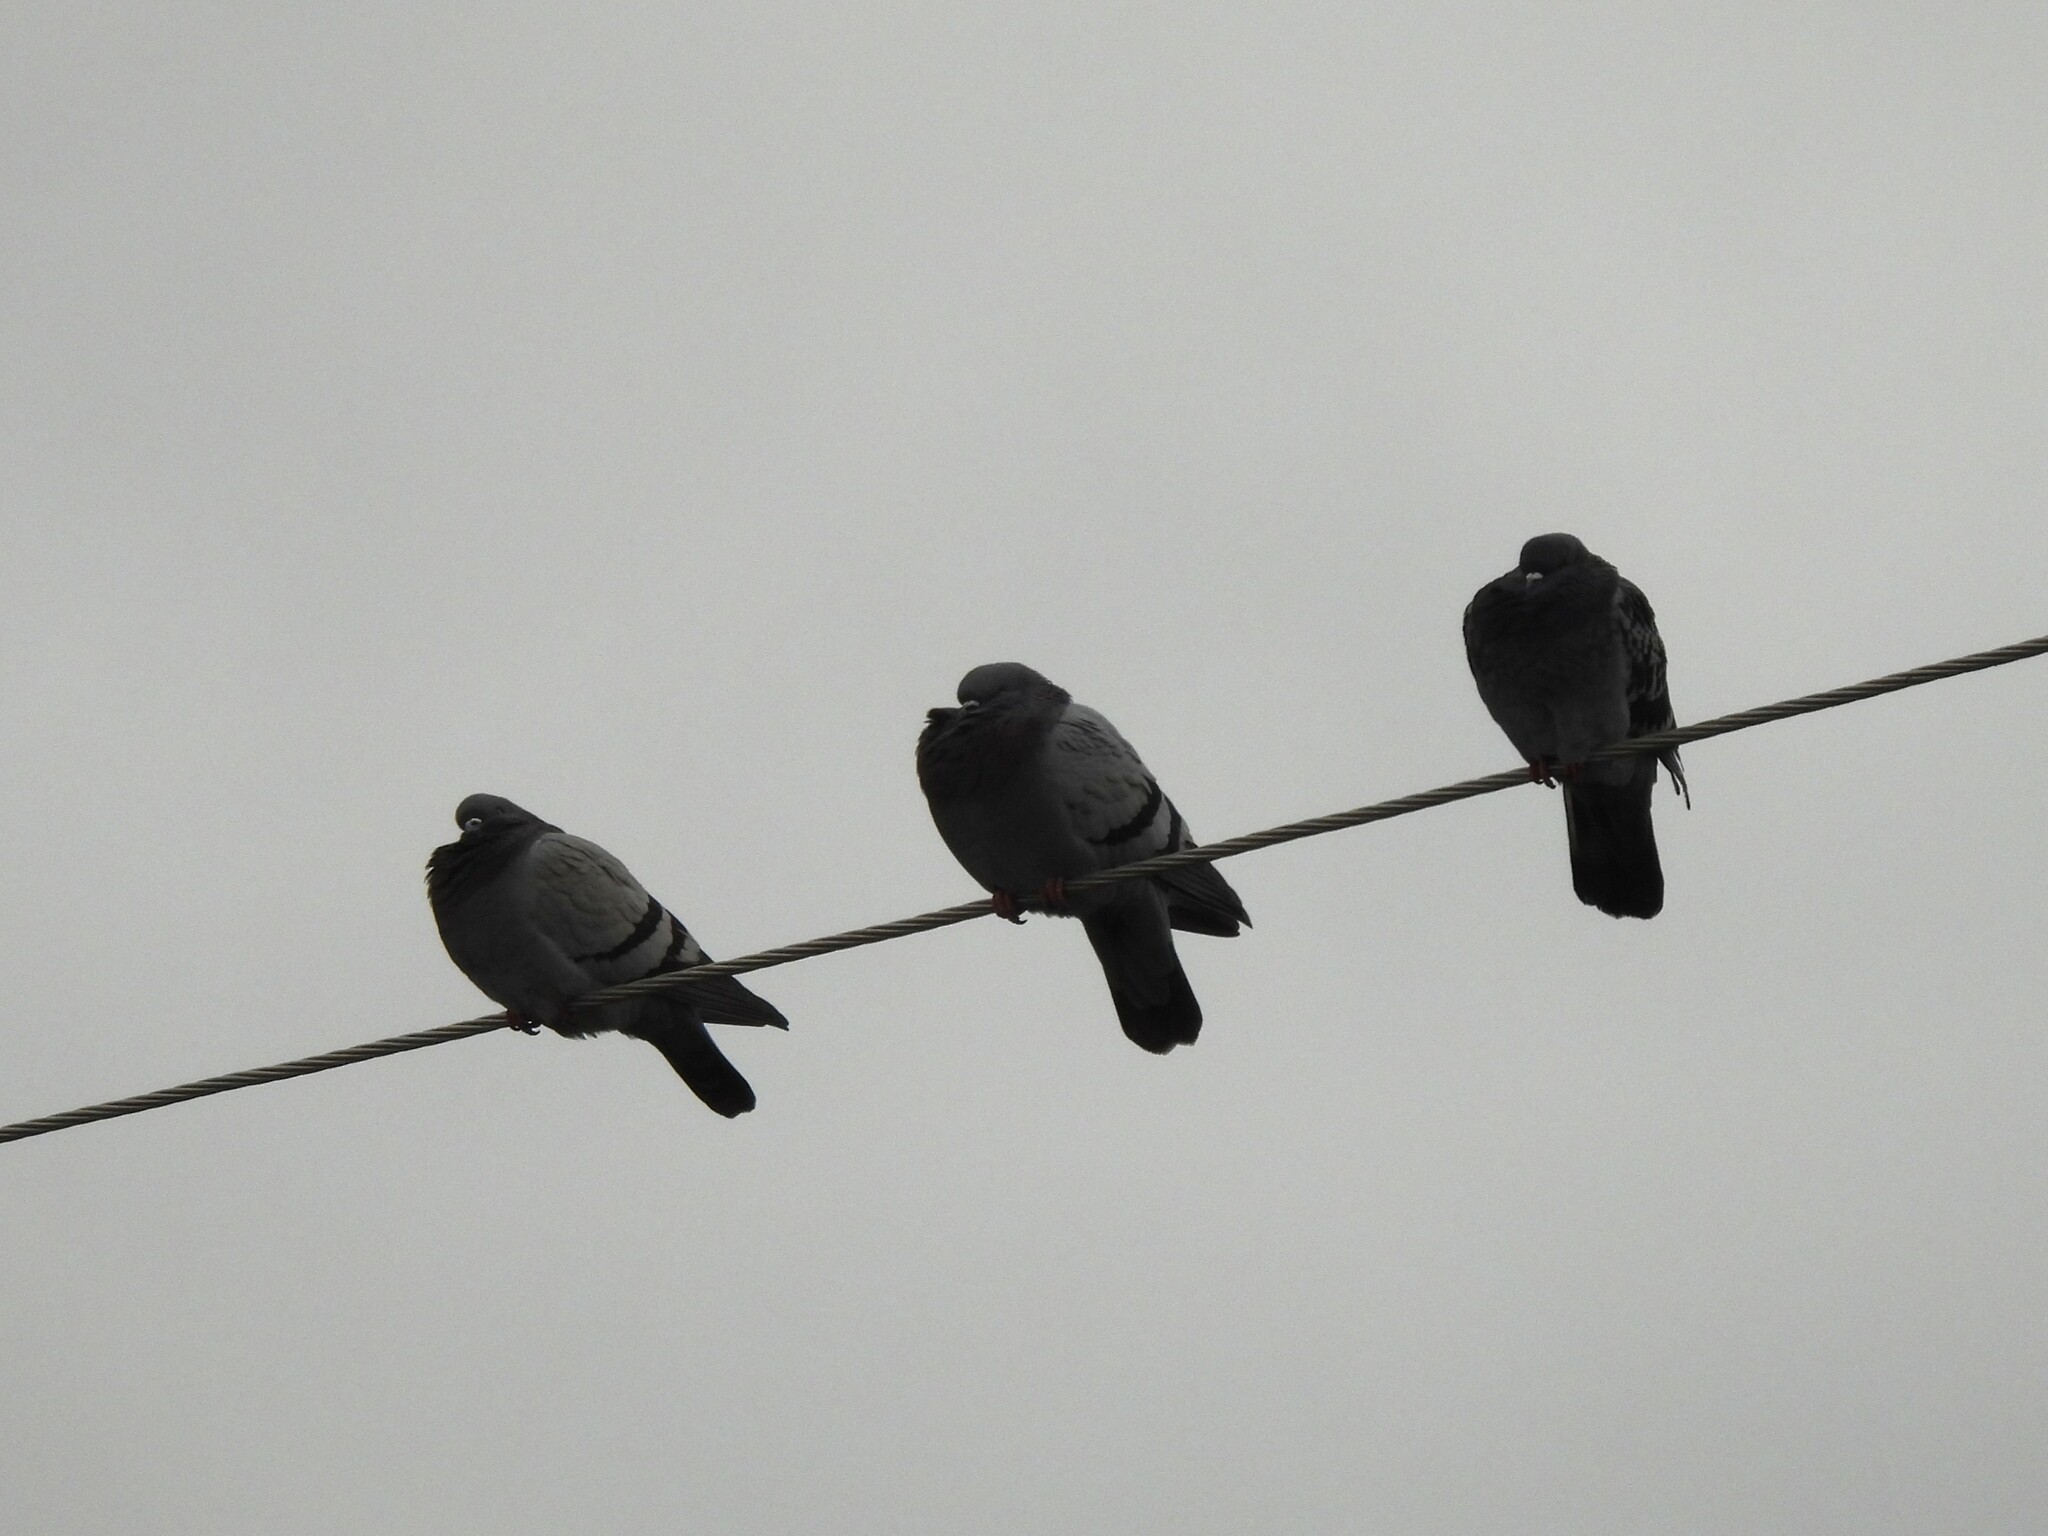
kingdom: Animalia
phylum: Chordata
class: Aves
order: Columbiformes
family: Columbidae
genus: Columba
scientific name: Columba livia
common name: Rock pigeon
